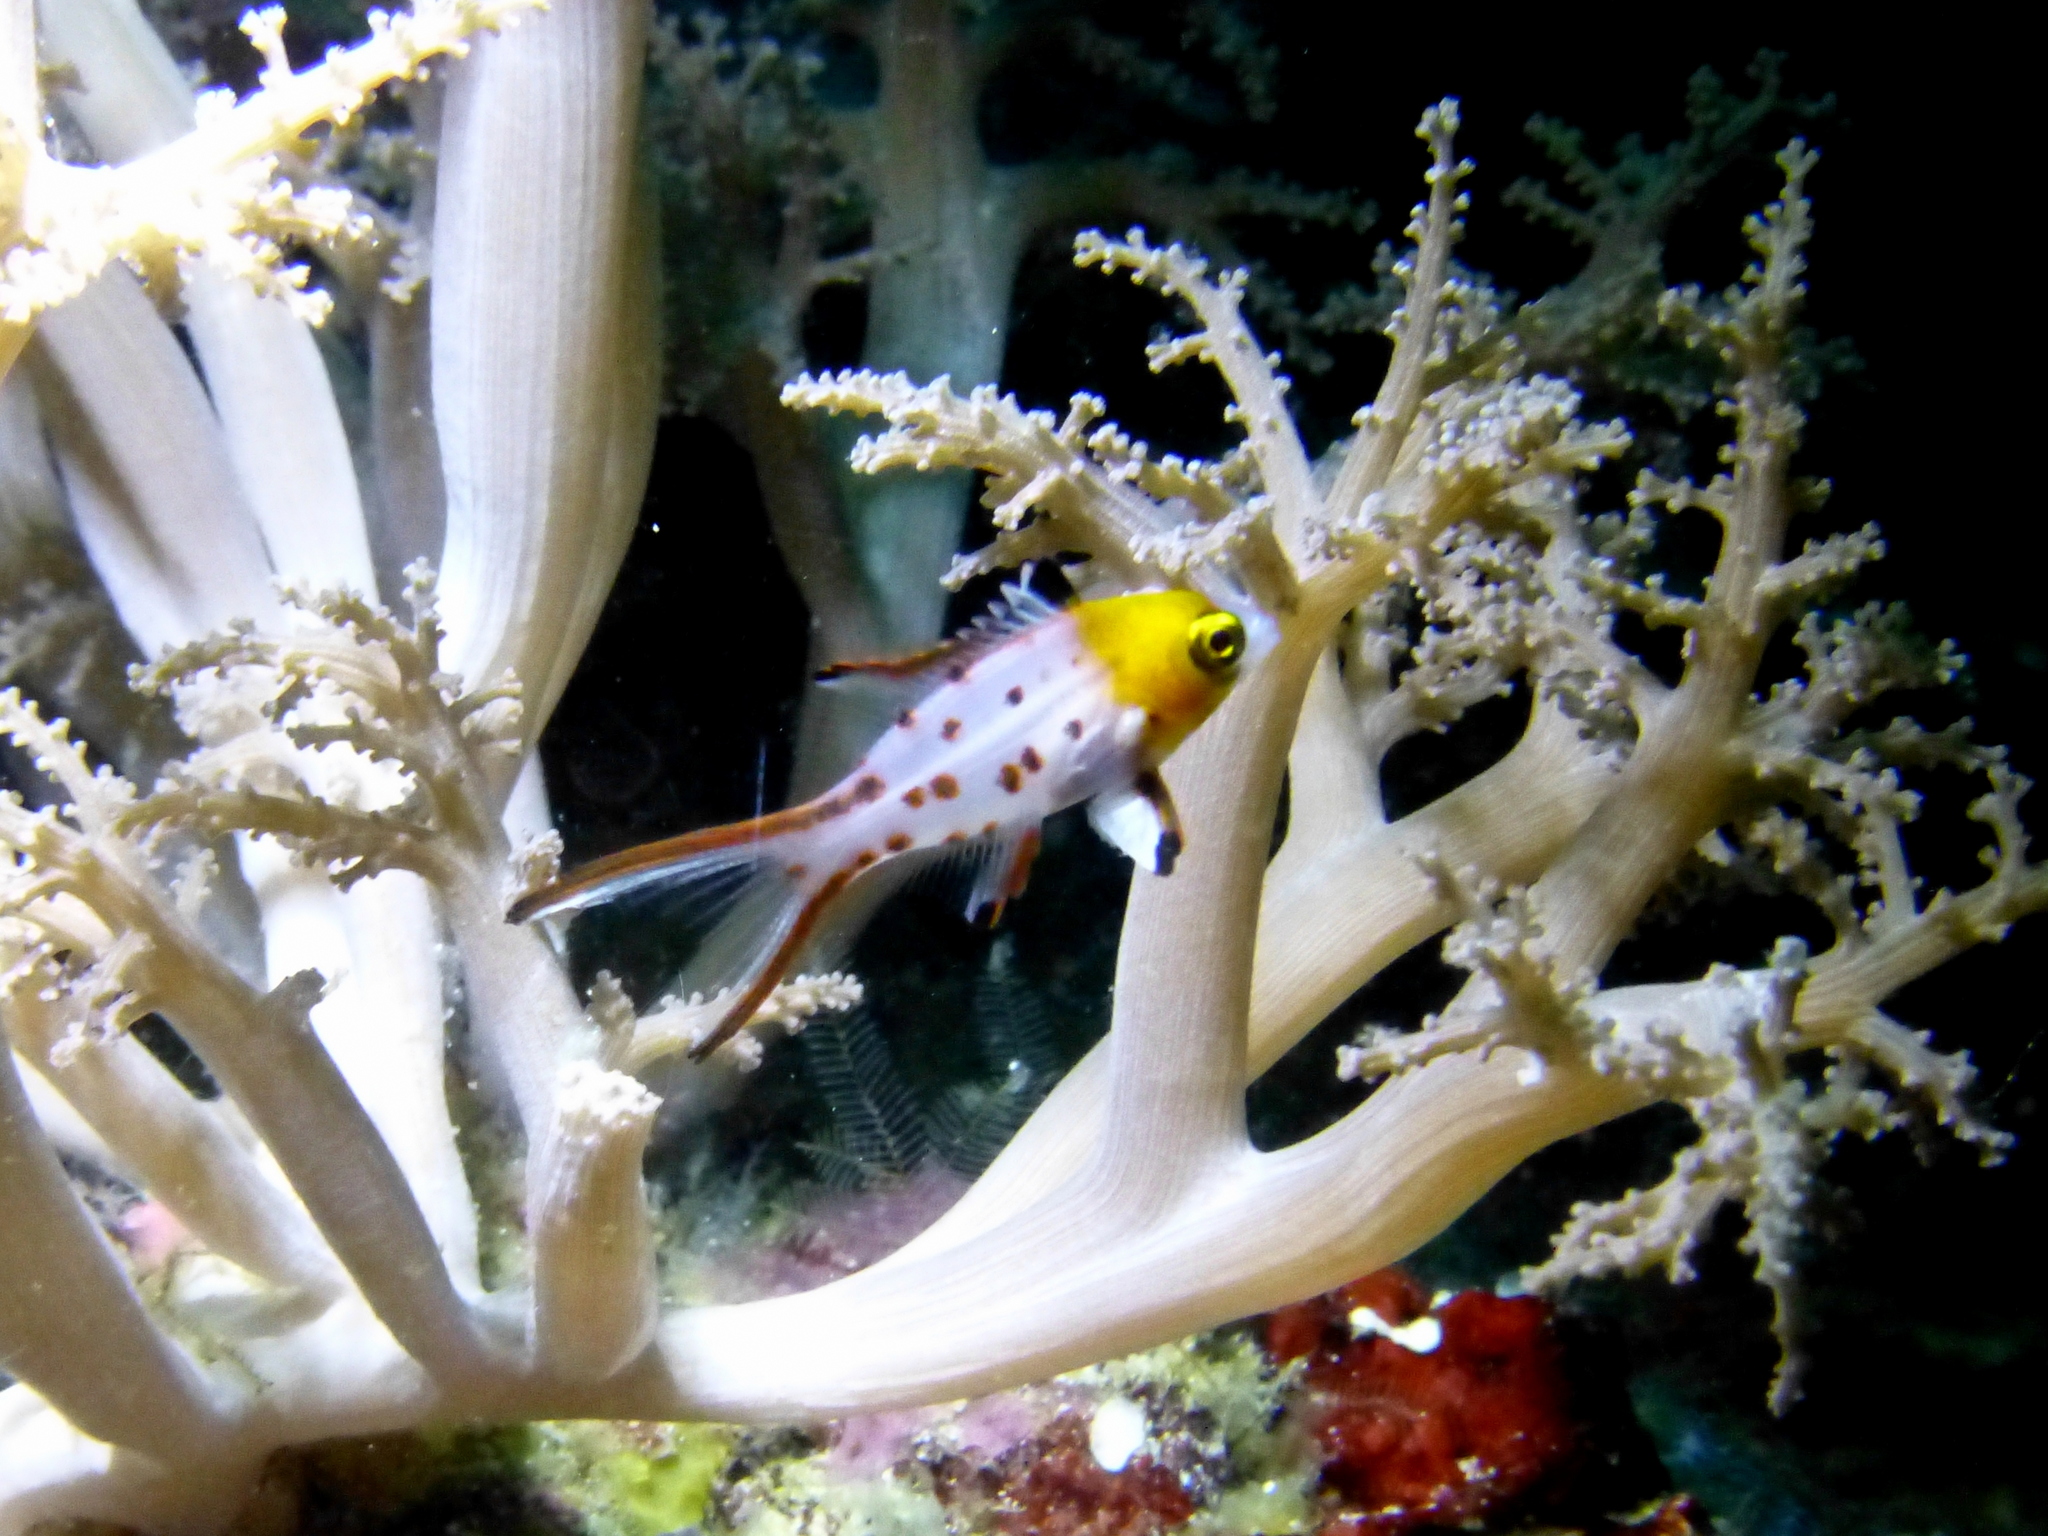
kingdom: Animalia
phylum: Chordata
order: Perciformes
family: Labridae
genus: Bodianus
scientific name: Bodianus anthioides
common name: Lyretail hogfish
